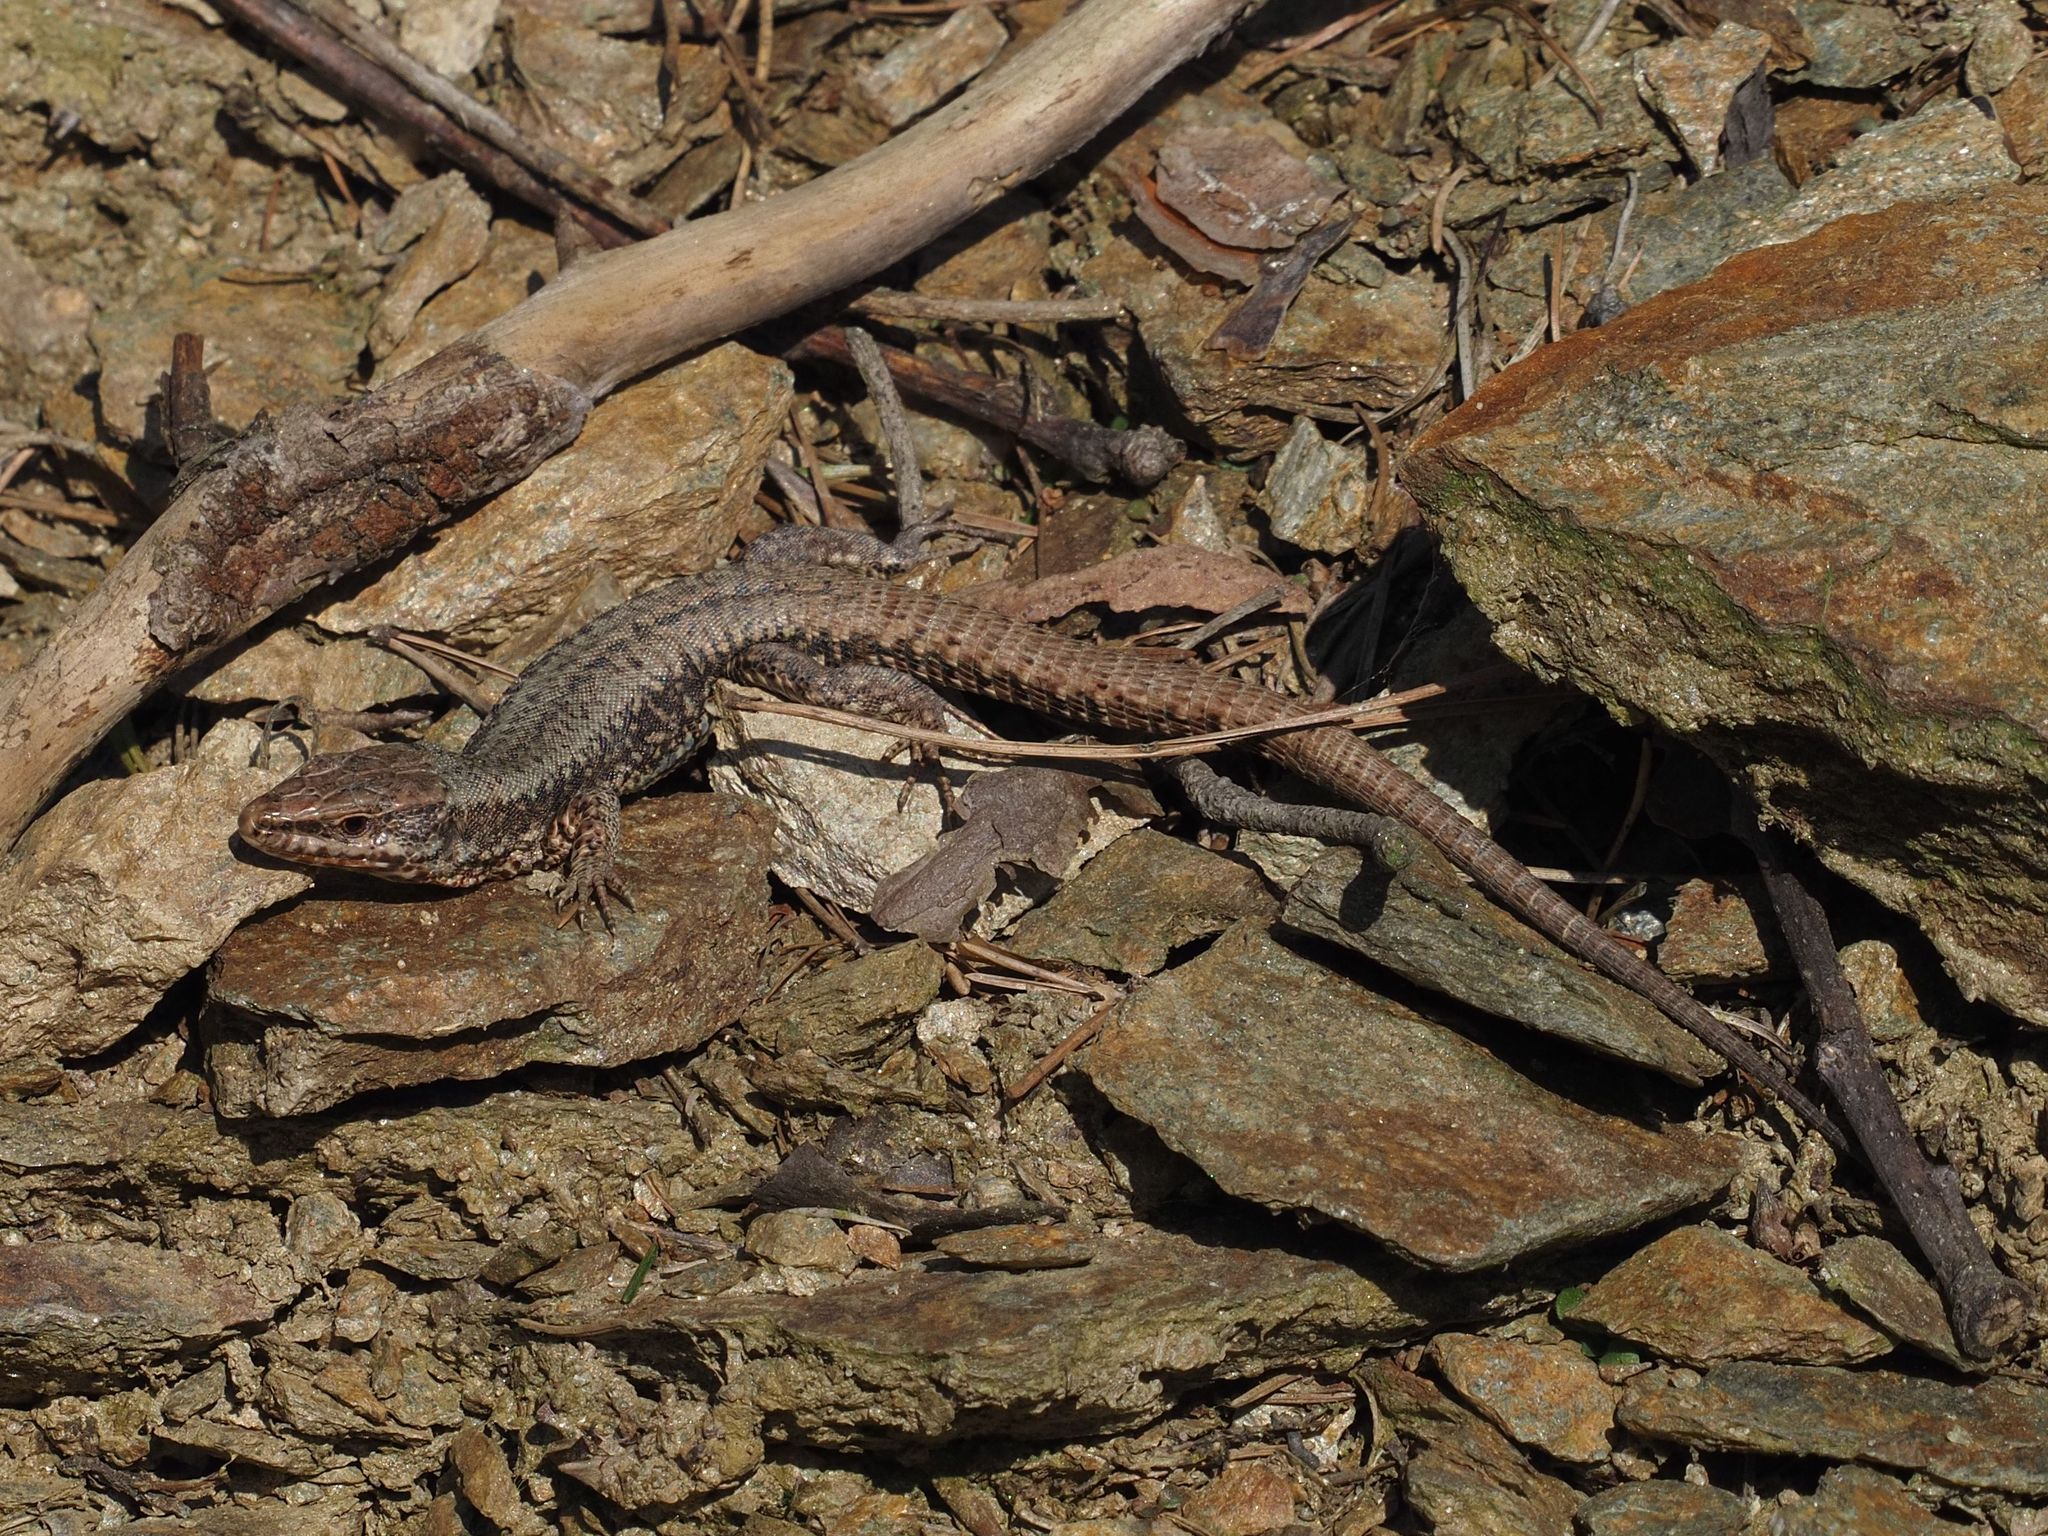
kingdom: Animalia
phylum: Chordata
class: Squamata
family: Lacertidae
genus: Podarcis
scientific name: Podarcis muralis
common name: Common wall lizard
